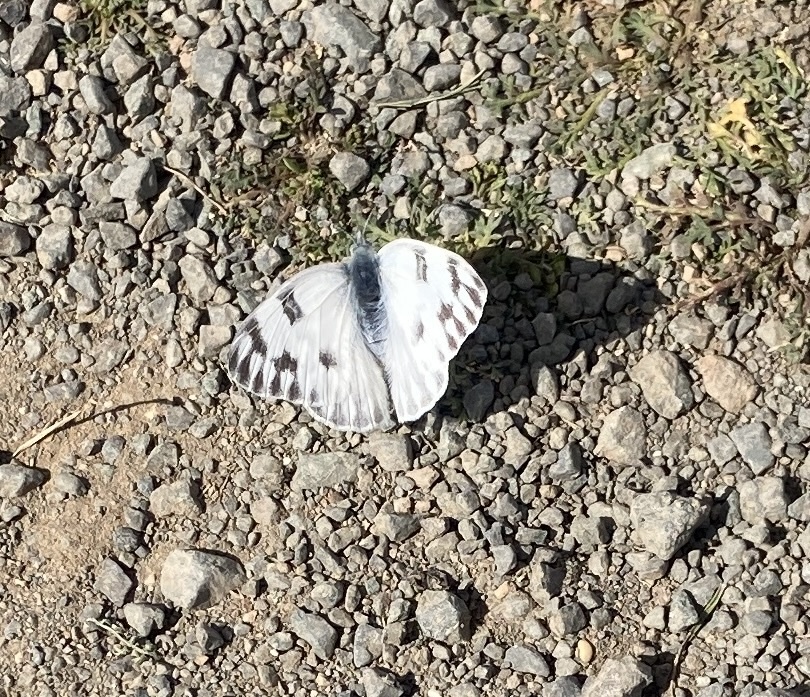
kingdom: Animalia
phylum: Arthropoda
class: Insecta
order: Lepidoptera
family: Pieridae
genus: Pontia
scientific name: Pontia protodice
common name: Checkered white
